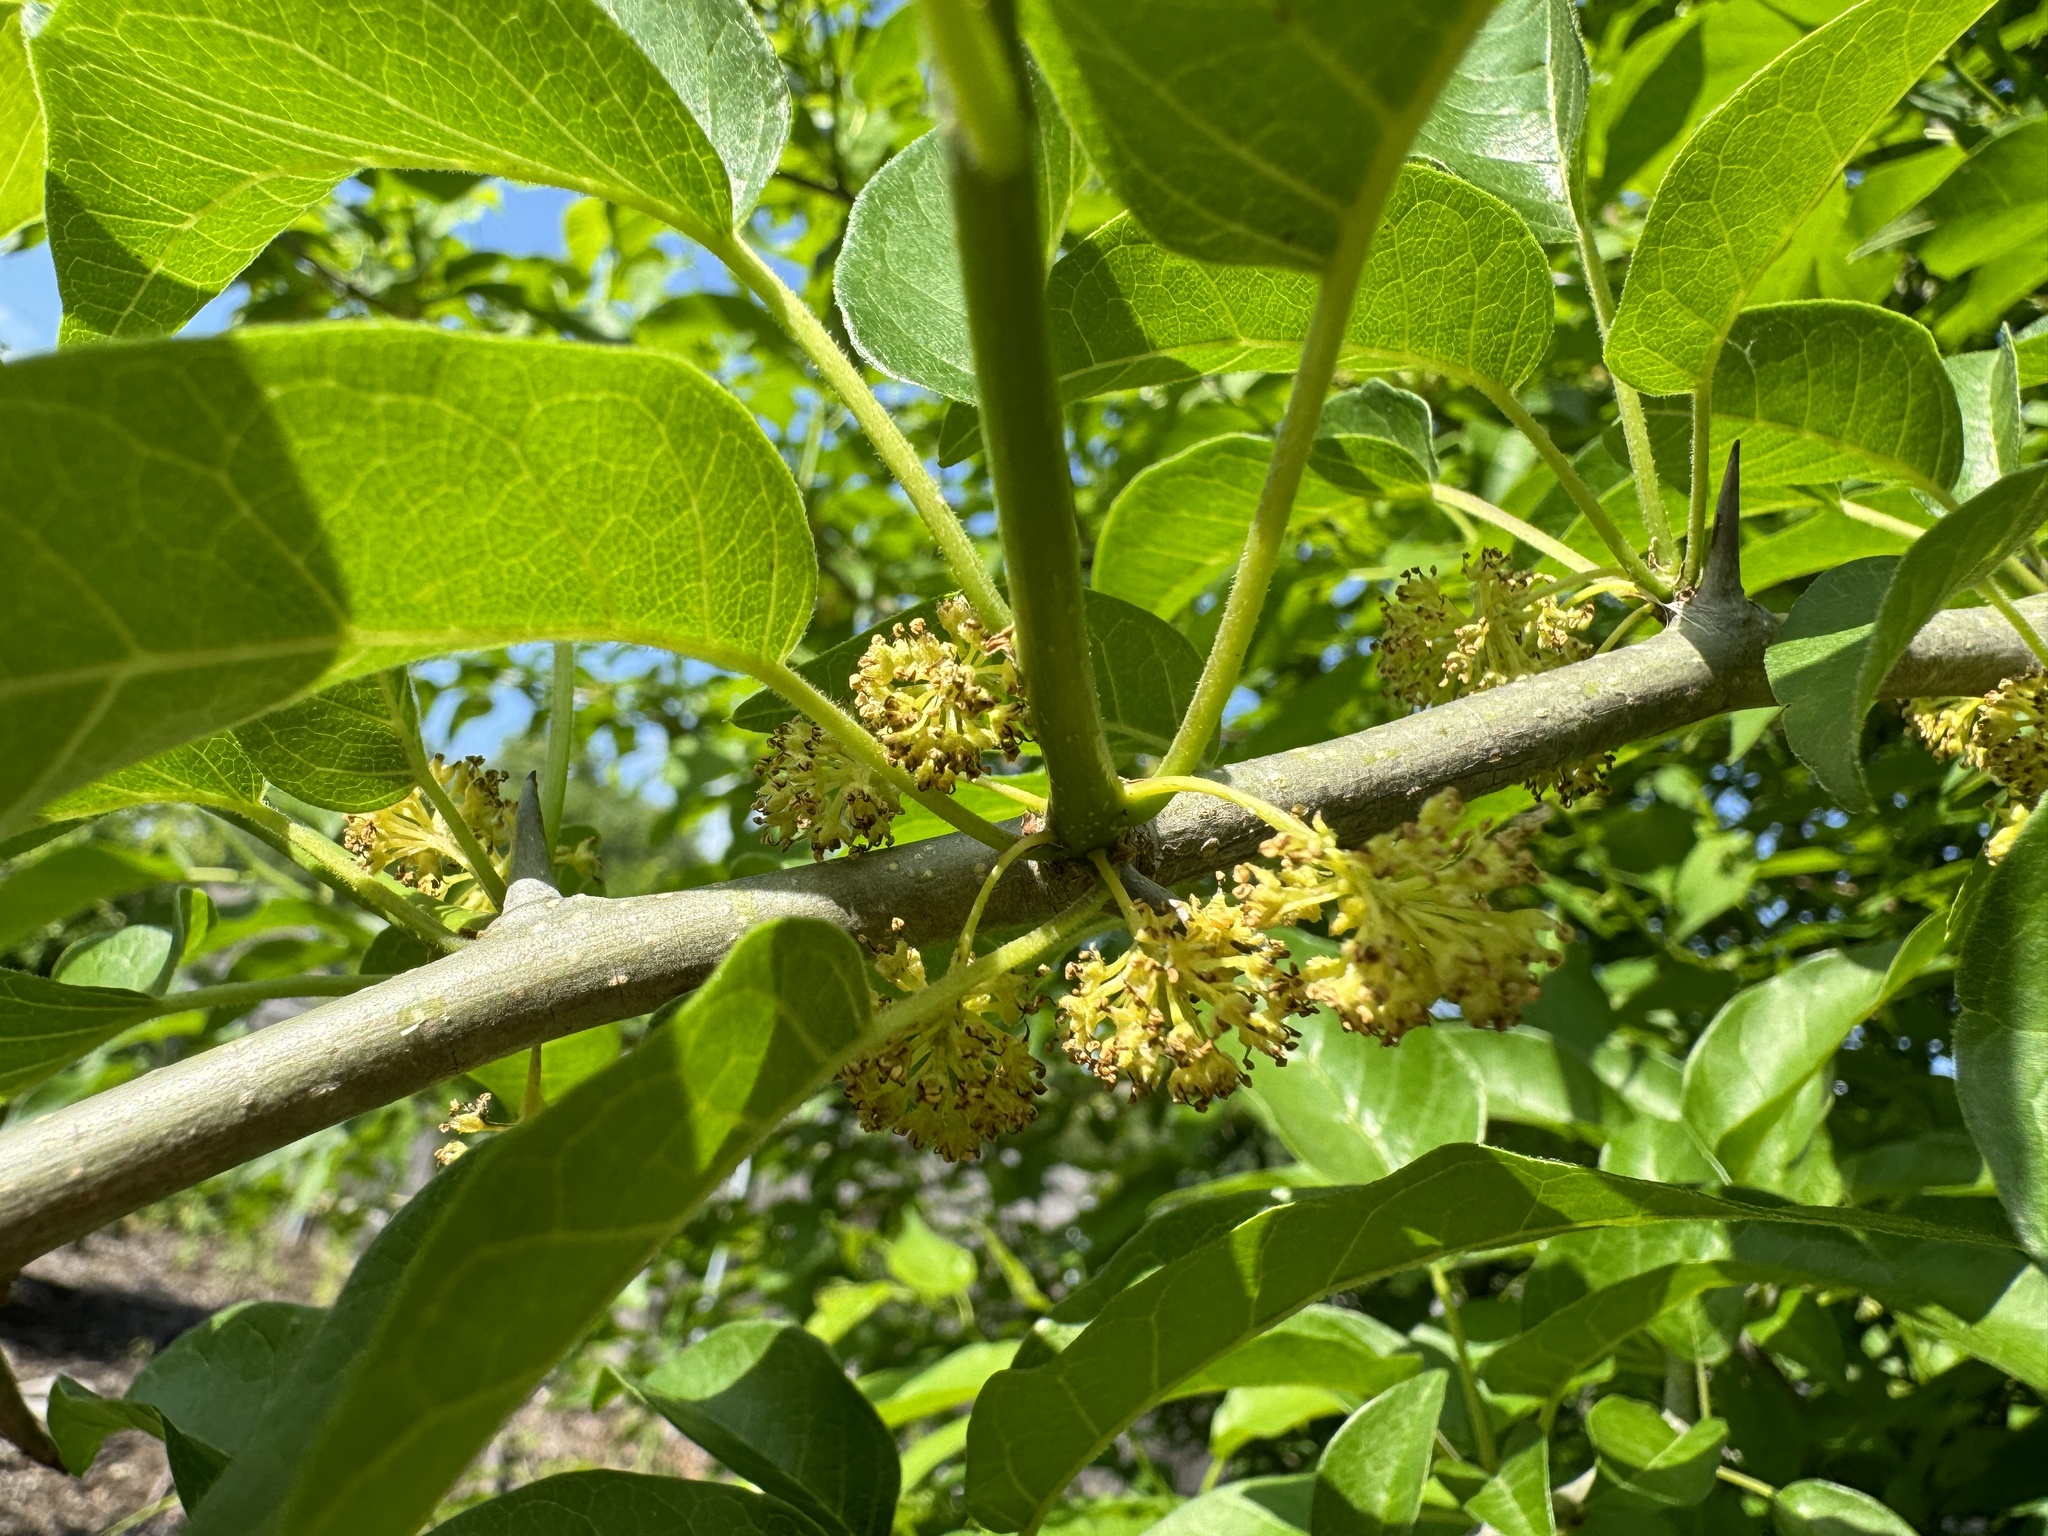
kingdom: Plantae
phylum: Tracheophyta
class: Magnoliopsida
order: Rosales
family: Moraceae
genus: Maclura
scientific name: Maclura pomifera
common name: Osage-orange
